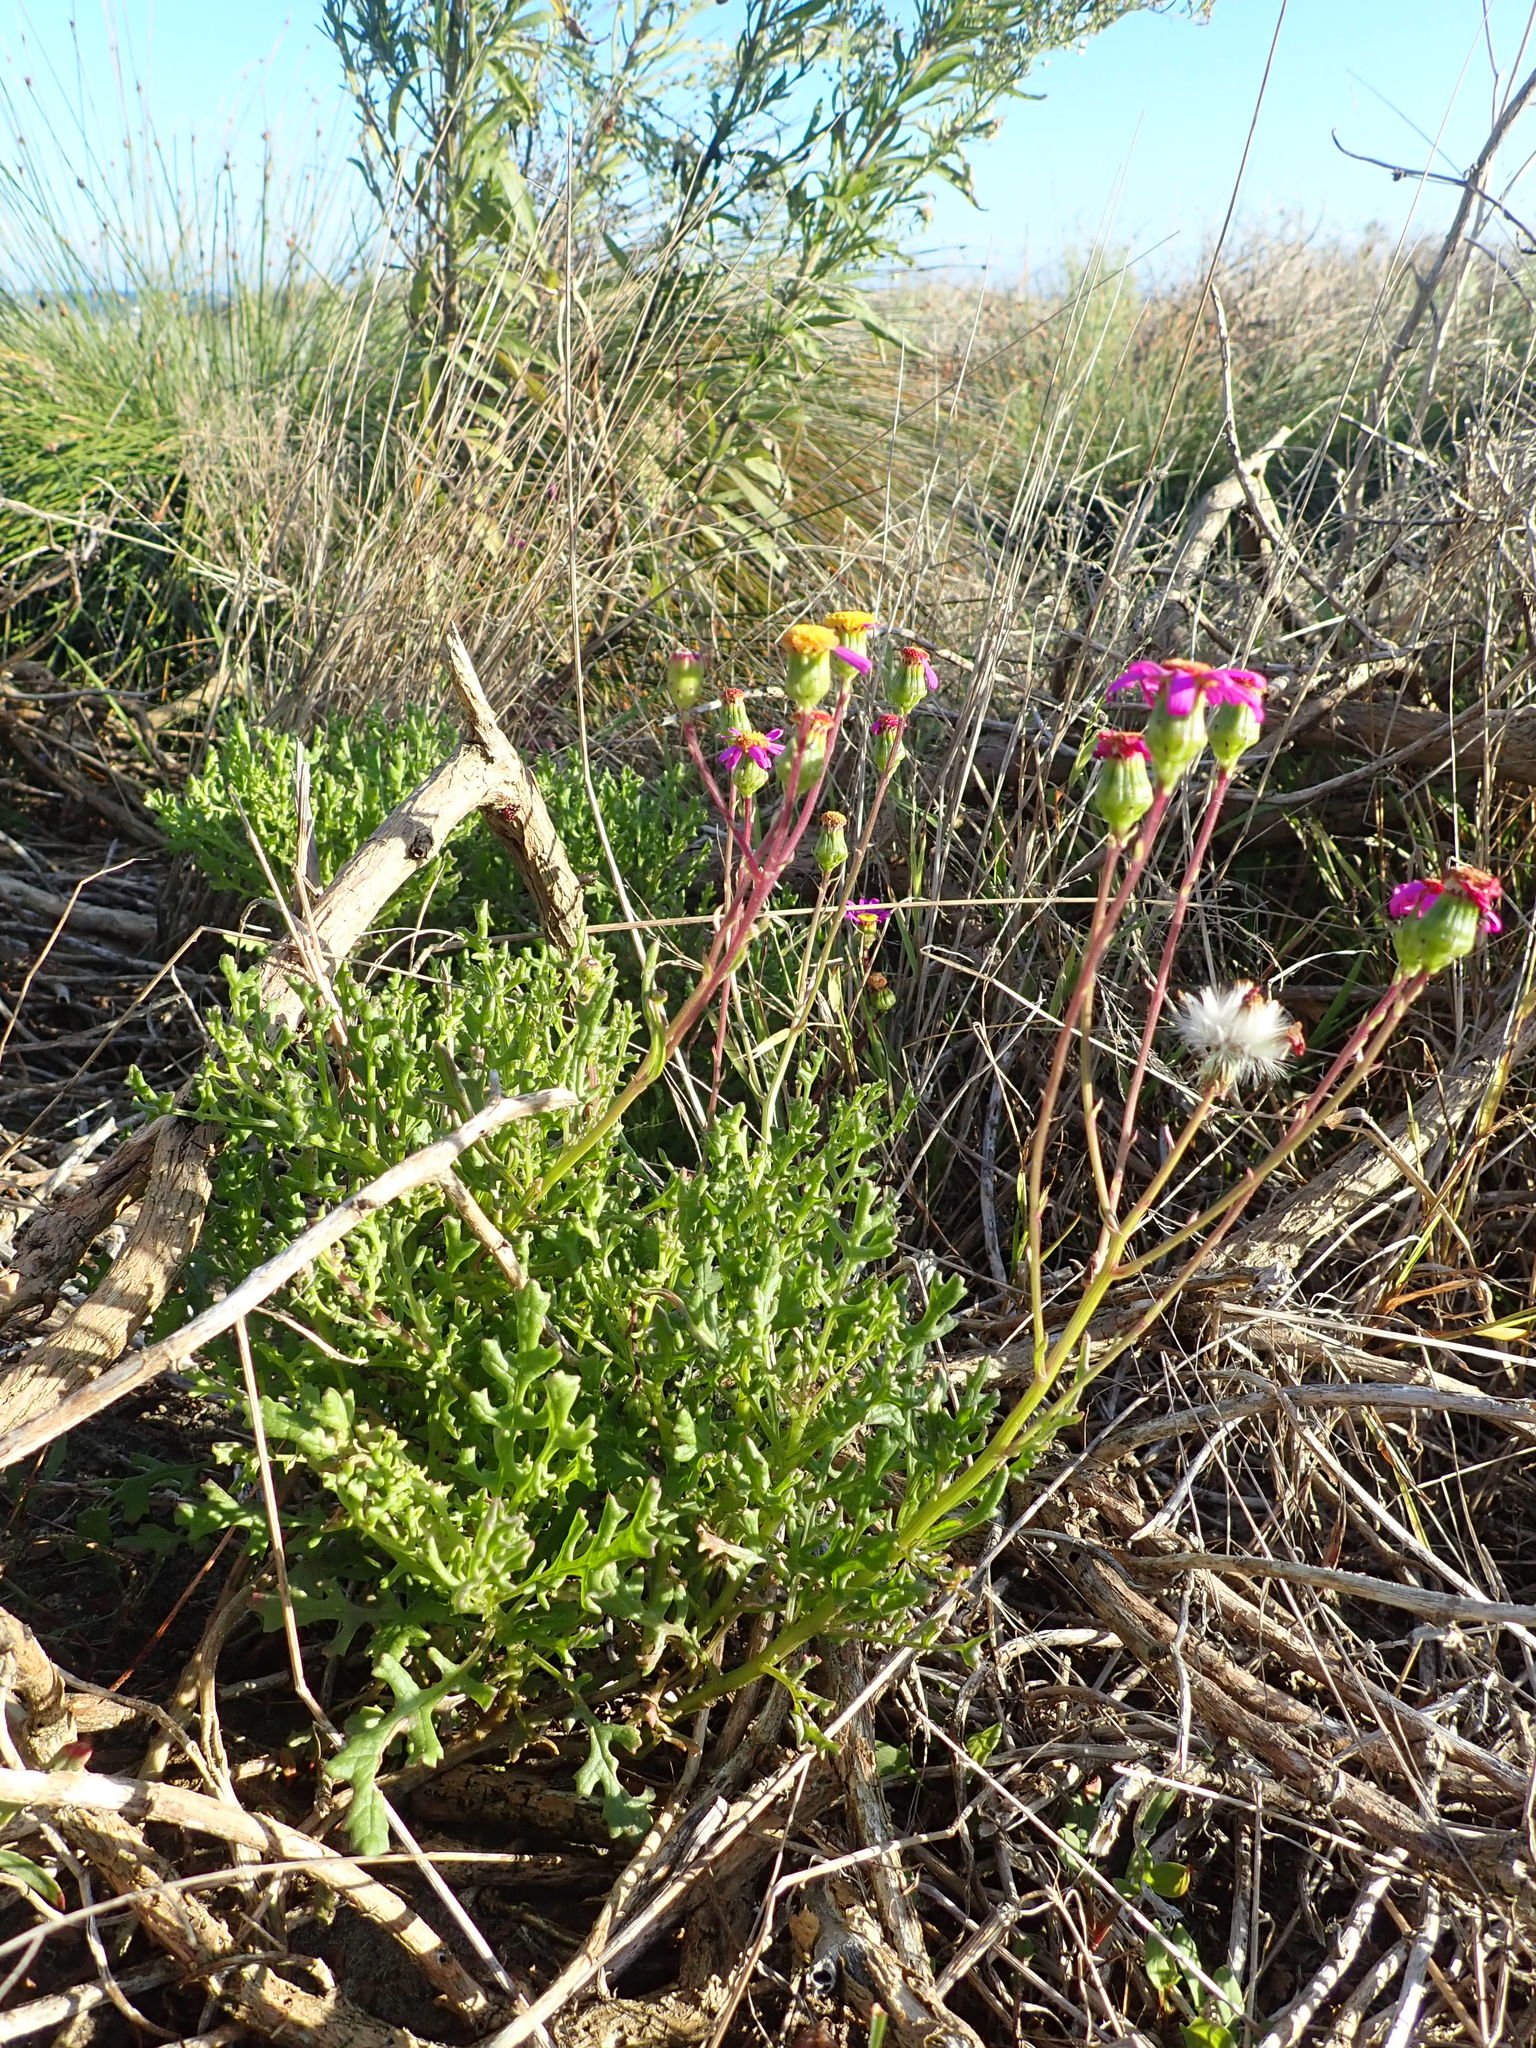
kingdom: Plantae
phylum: Tracheophyta
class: Magnoliopsida
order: Asterales
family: Asteraceae
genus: Senecio
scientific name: Senecio elegans
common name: Purple groundsel
